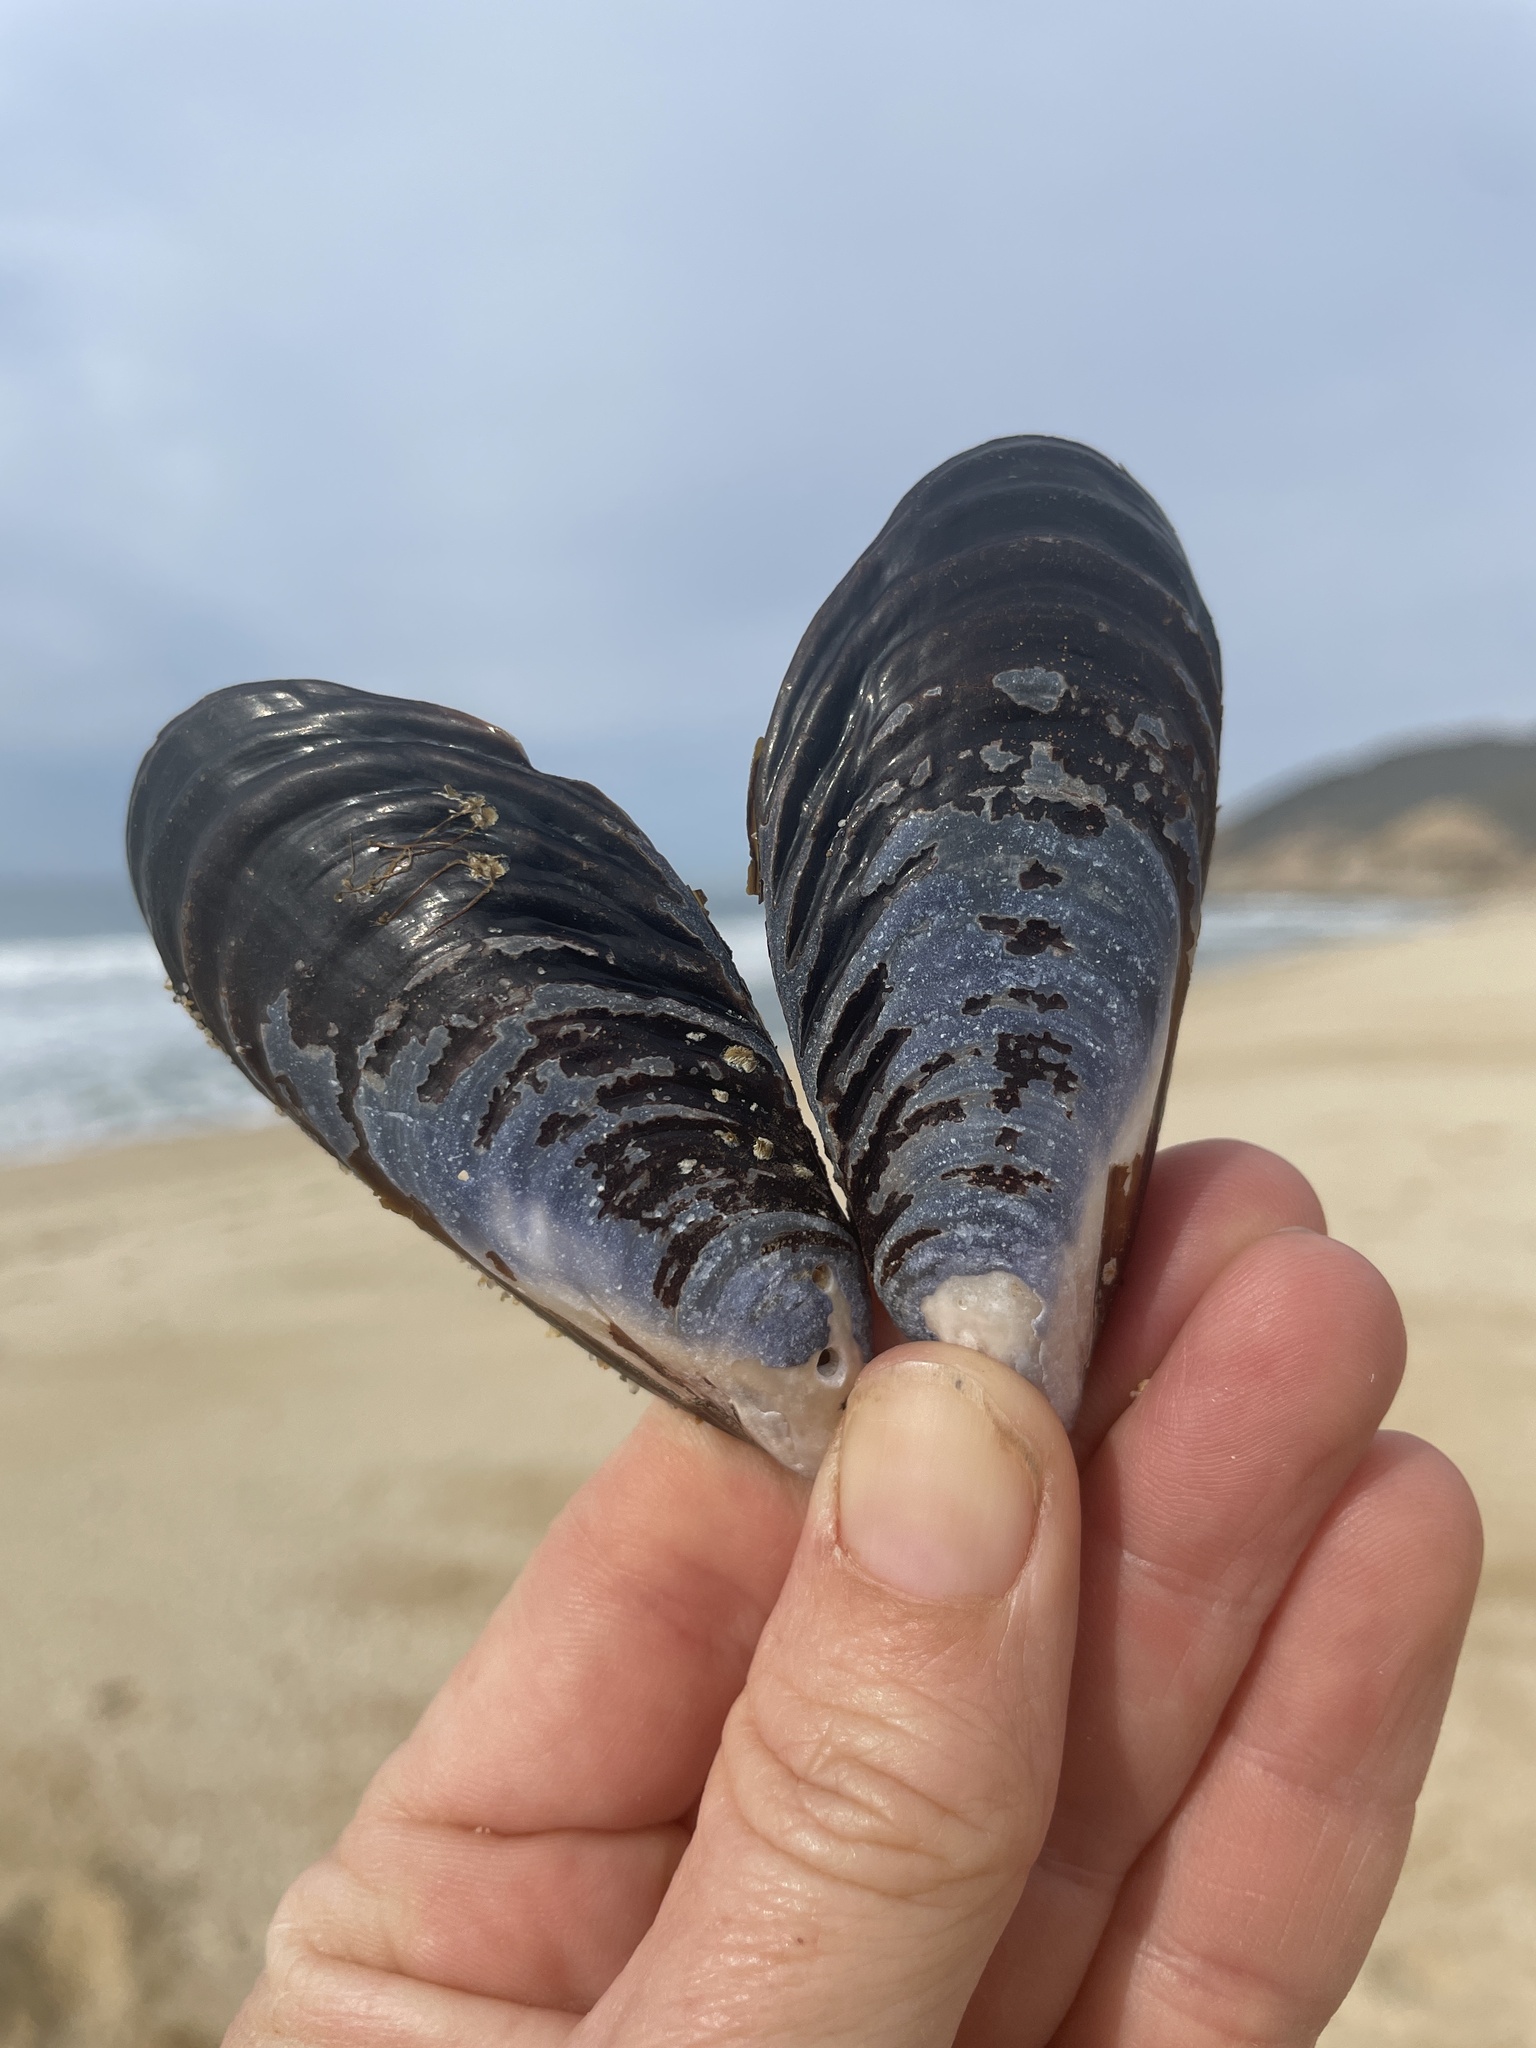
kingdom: Animalia
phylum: Mollusca
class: Bivalvia
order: Mytilida
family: Mytilidae
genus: Mytilus
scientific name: Mytilus californianus
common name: California mussel
